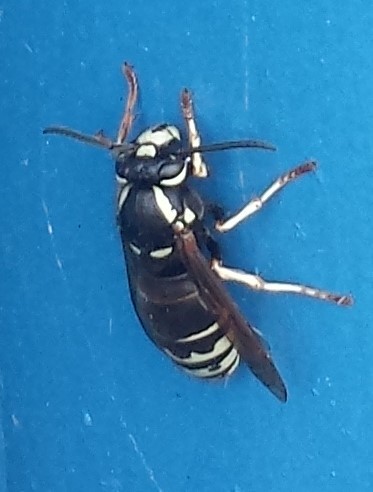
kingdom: Animalia
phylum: Arthropoda
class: Insecta
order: Hymenoptera
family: Vespidae
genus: Vespula
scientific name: Vespula consobrina
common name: Blackjacket
